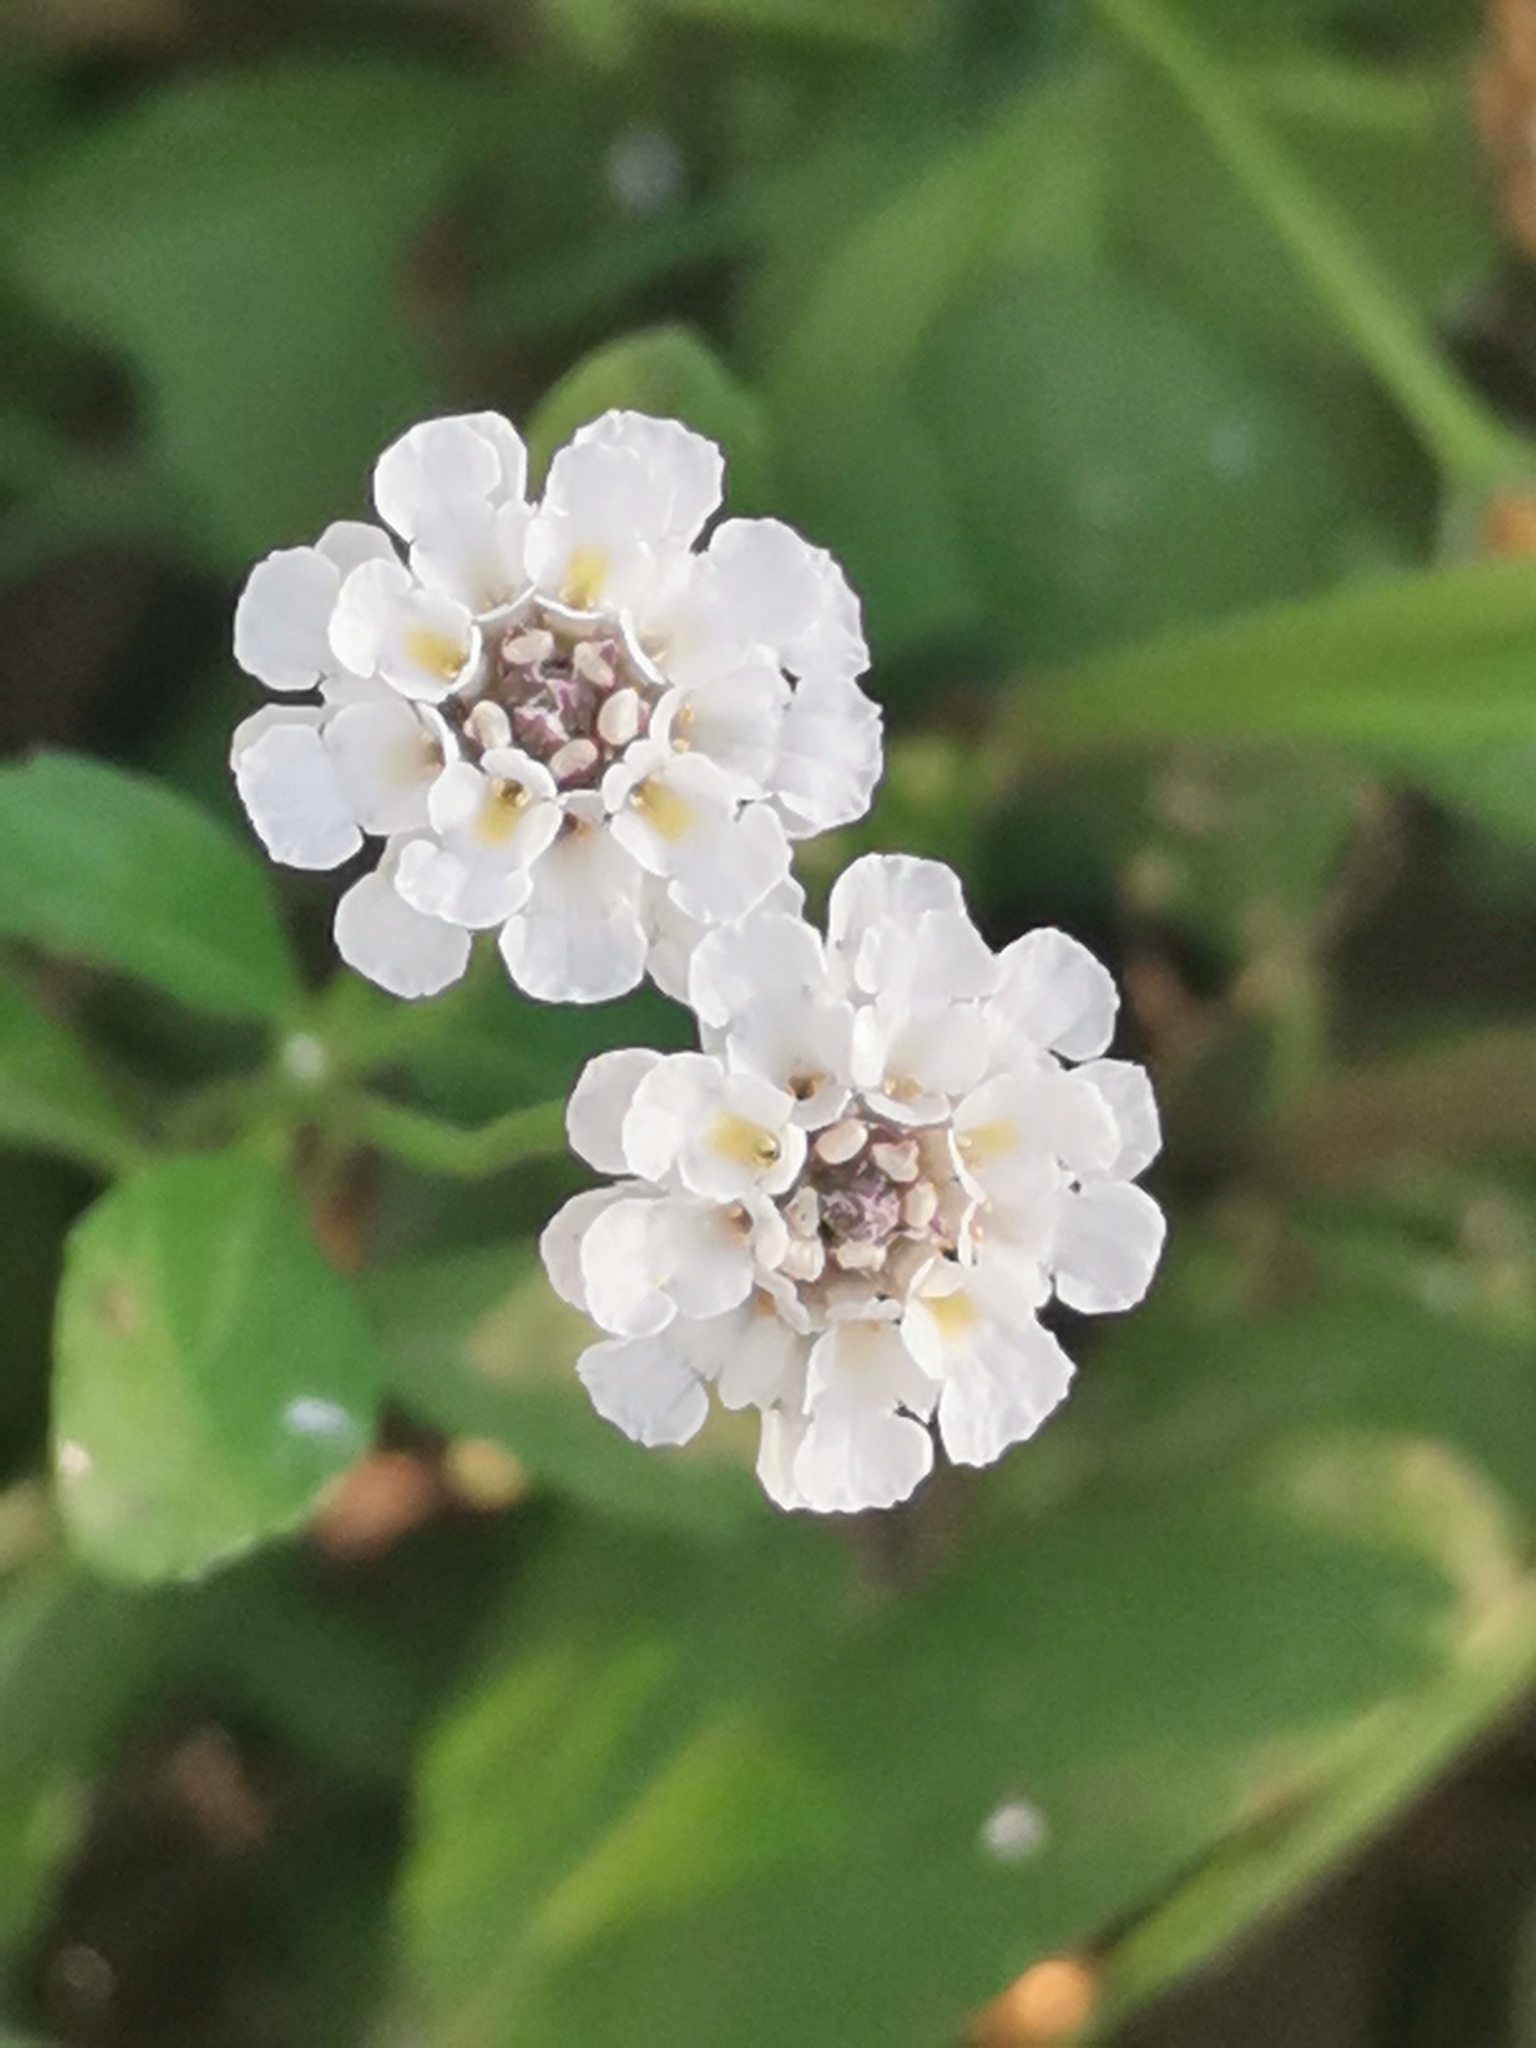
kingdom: Plantae
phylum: Tracheophyta
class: Magnoliopsida
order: Lamiales
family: Verbenaceae
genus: Phyla
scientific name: Phyla nodiflora
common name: Frogfruit
